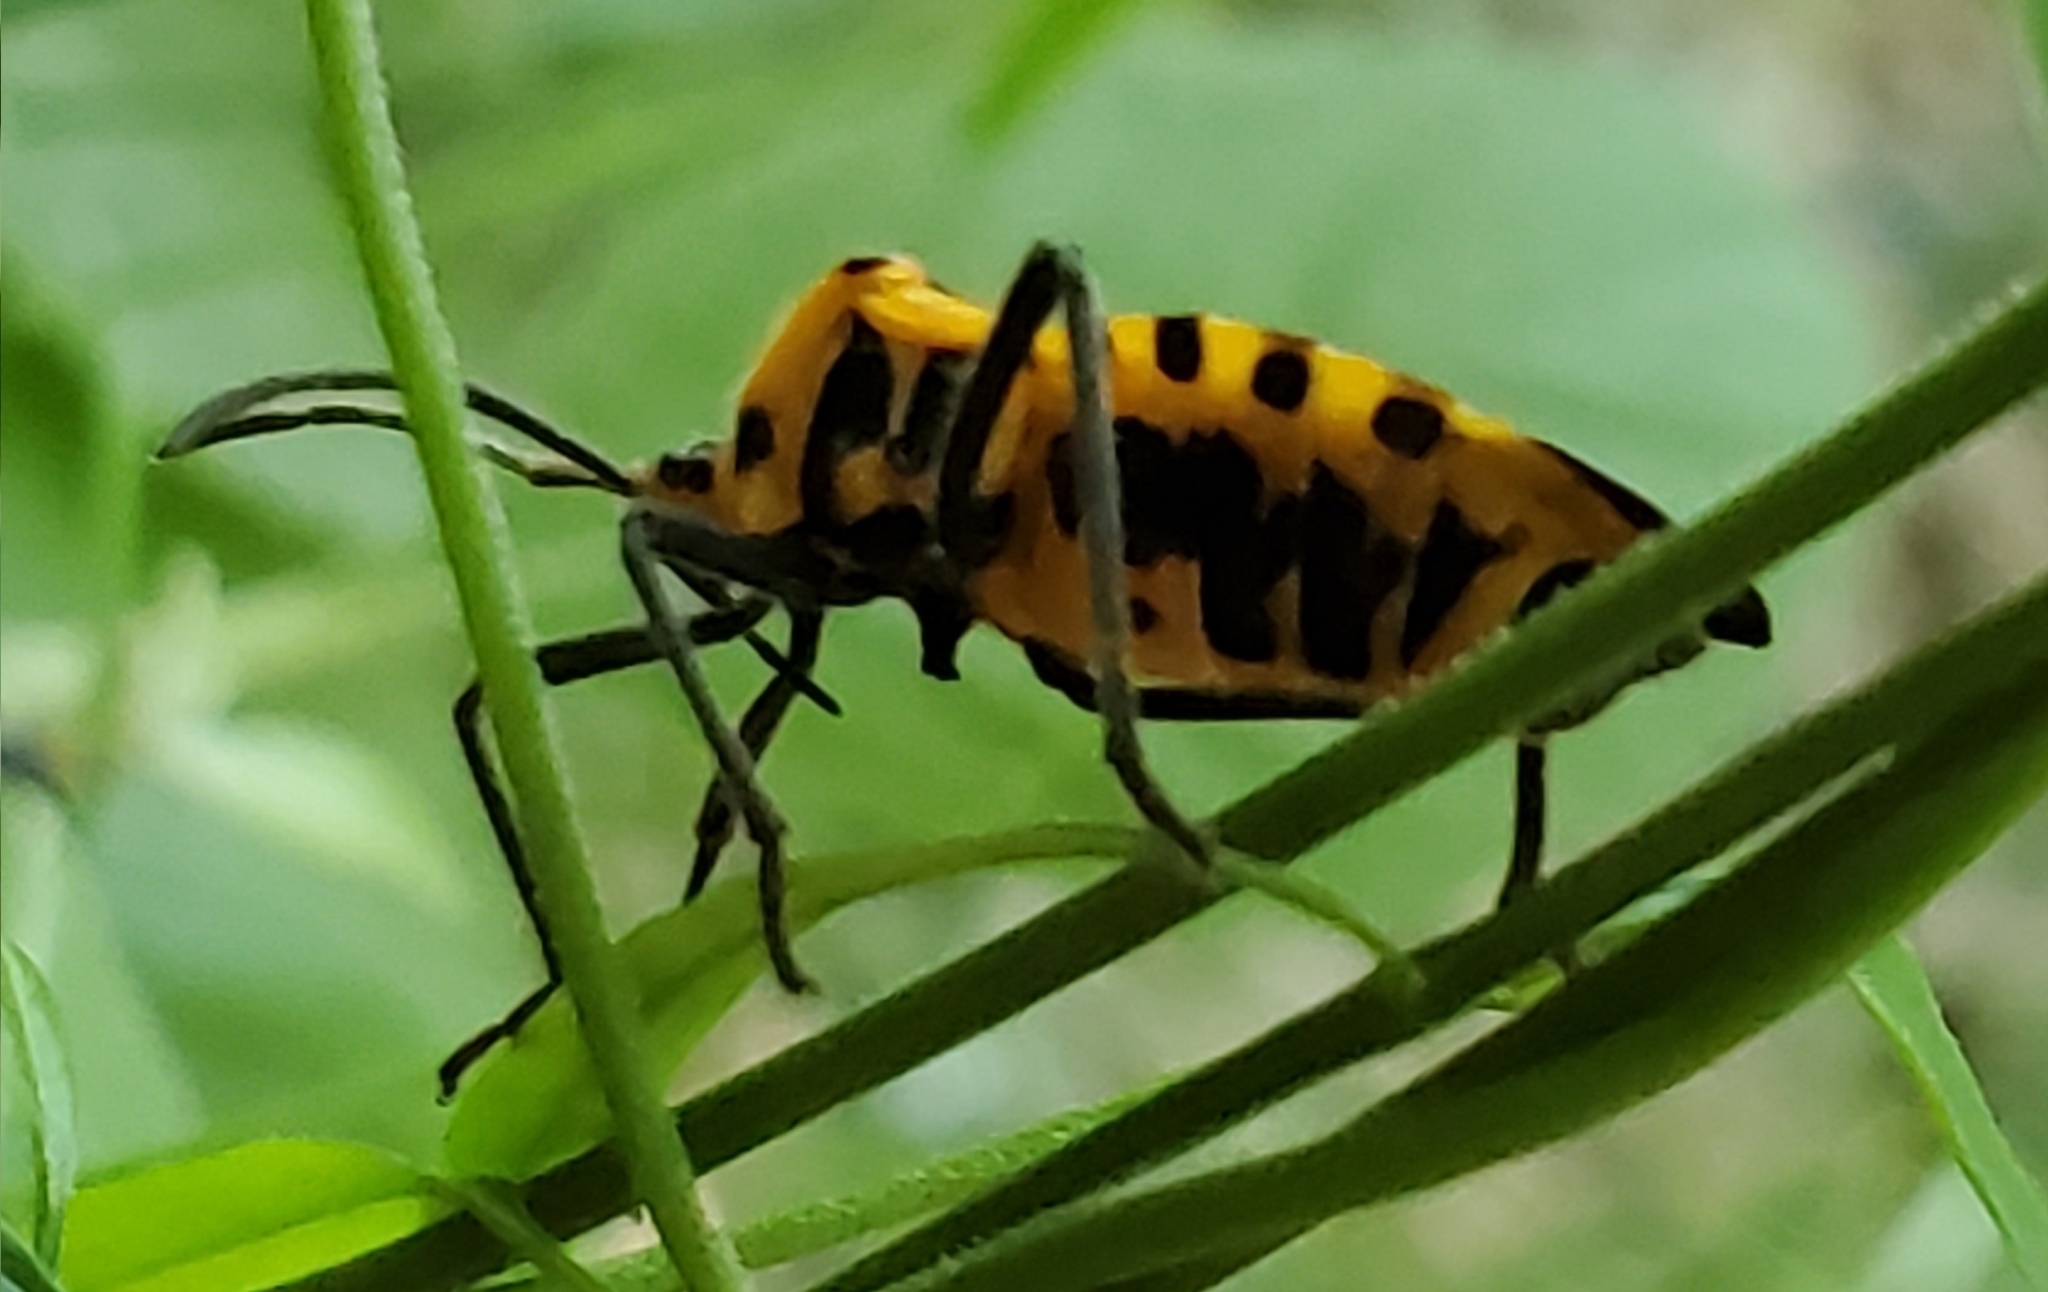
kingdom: Animalia
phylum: Arthropoda
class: Insecta
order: Hemiptera
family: Coreidae
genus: Sephina
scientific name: Sephina gundlachii
